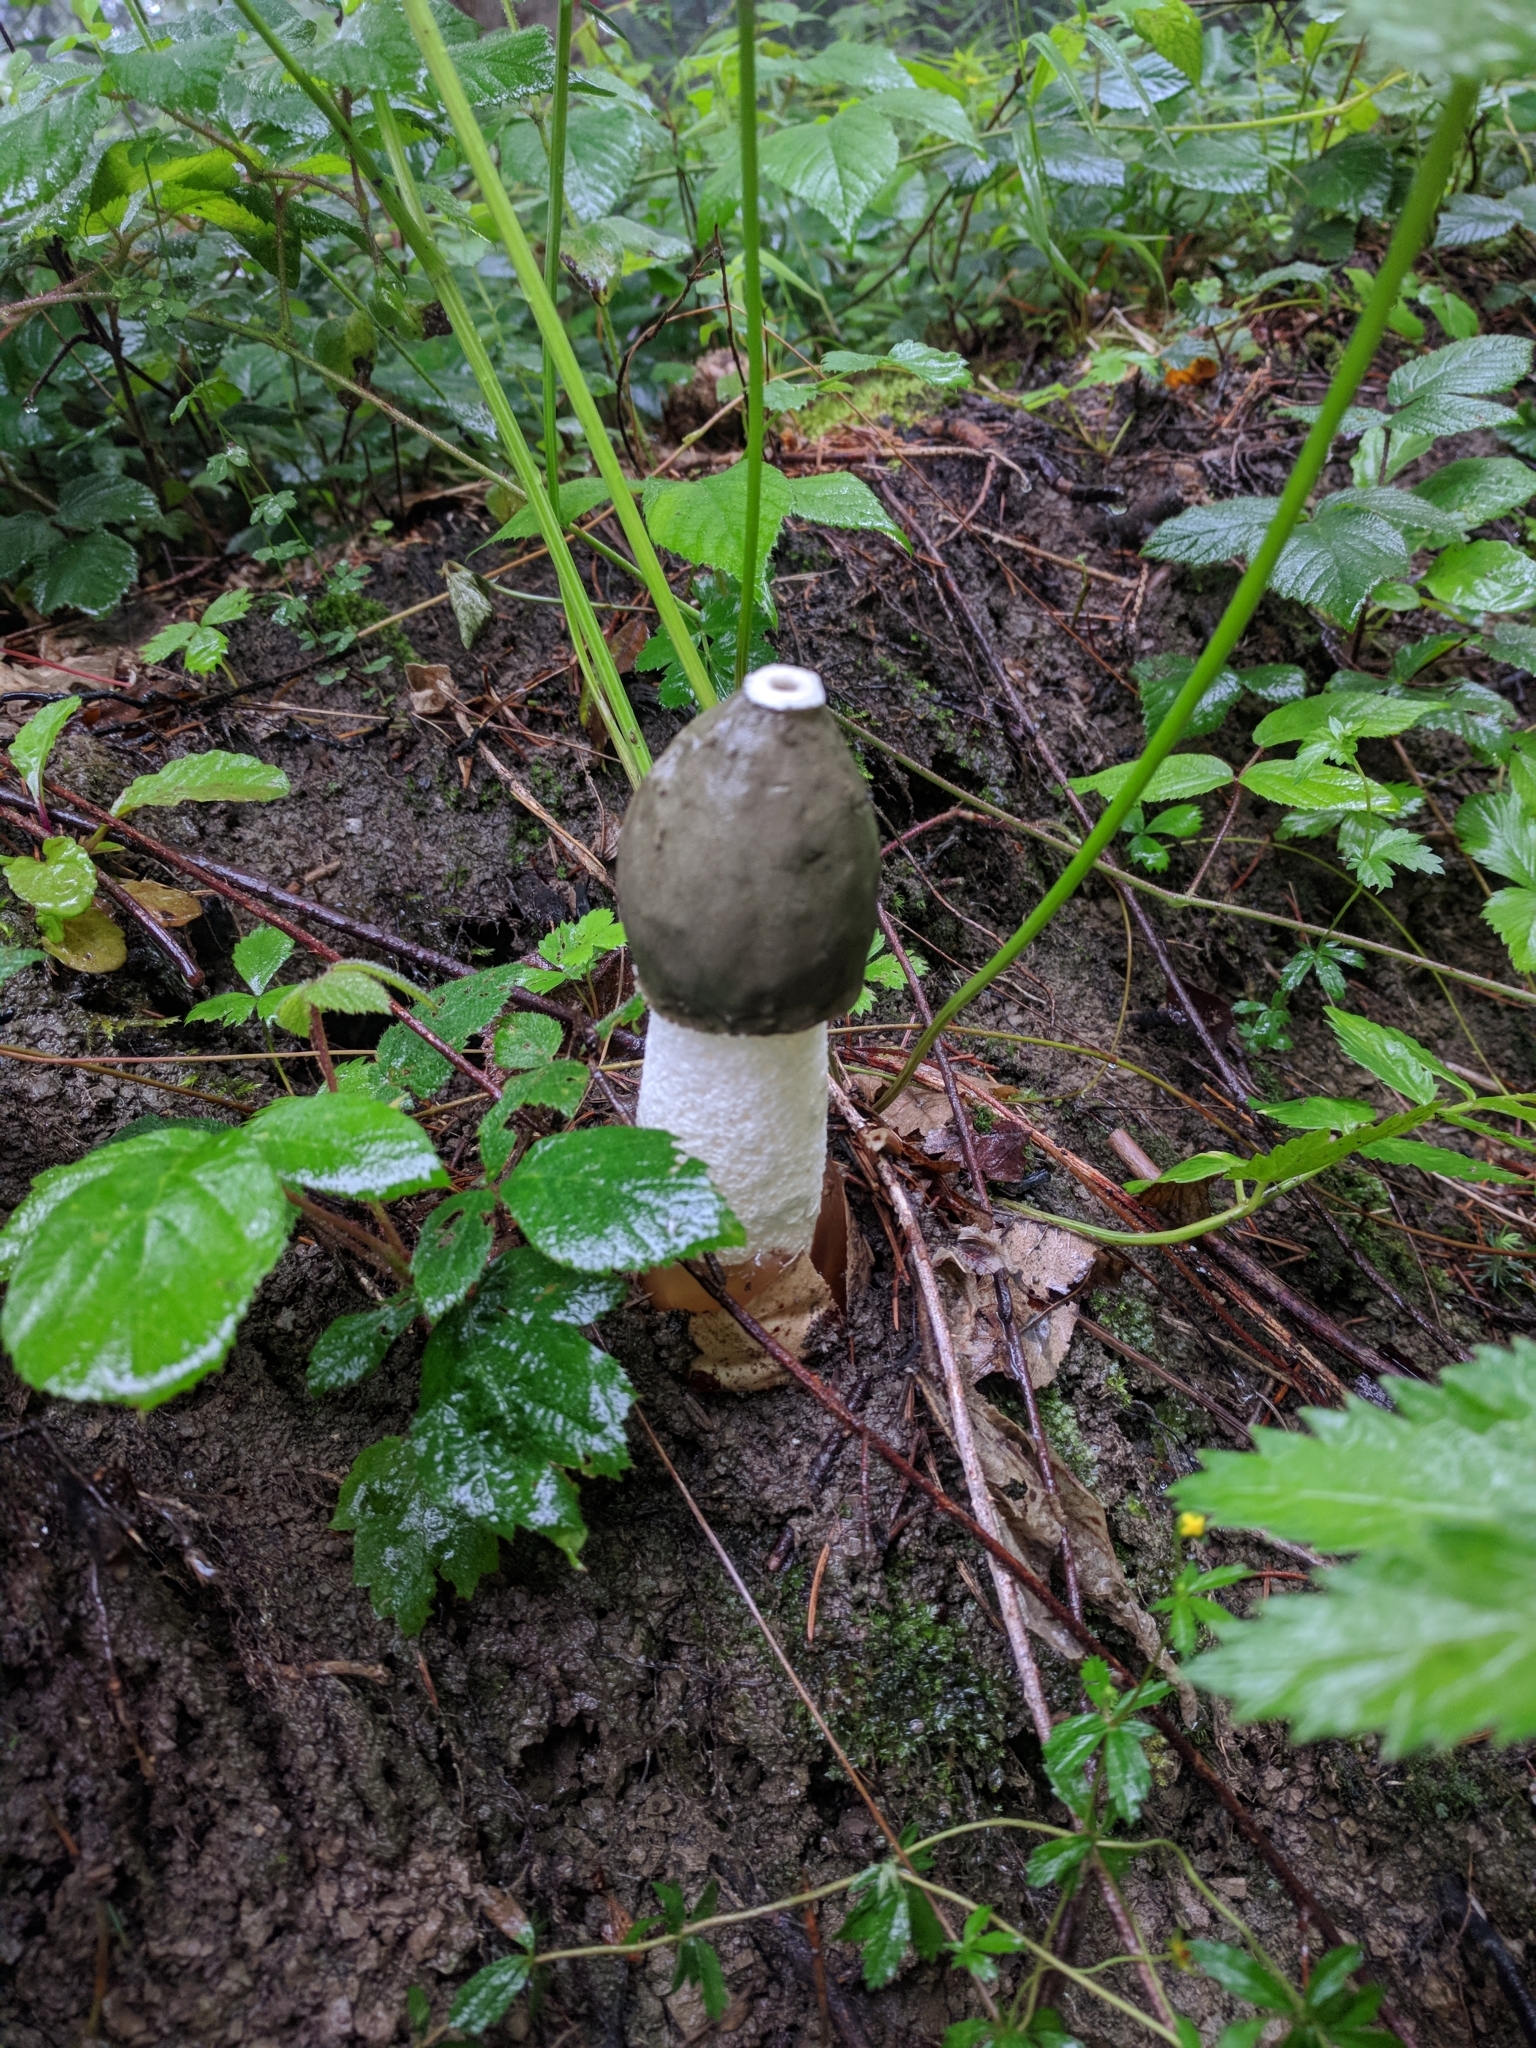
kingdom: Fungi
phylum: Basidiomycota
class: Agaricomycetes
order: Phallales
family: Phallaceae
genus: Phallus
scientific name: Phallus impudicus
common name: Common stinkhorn
